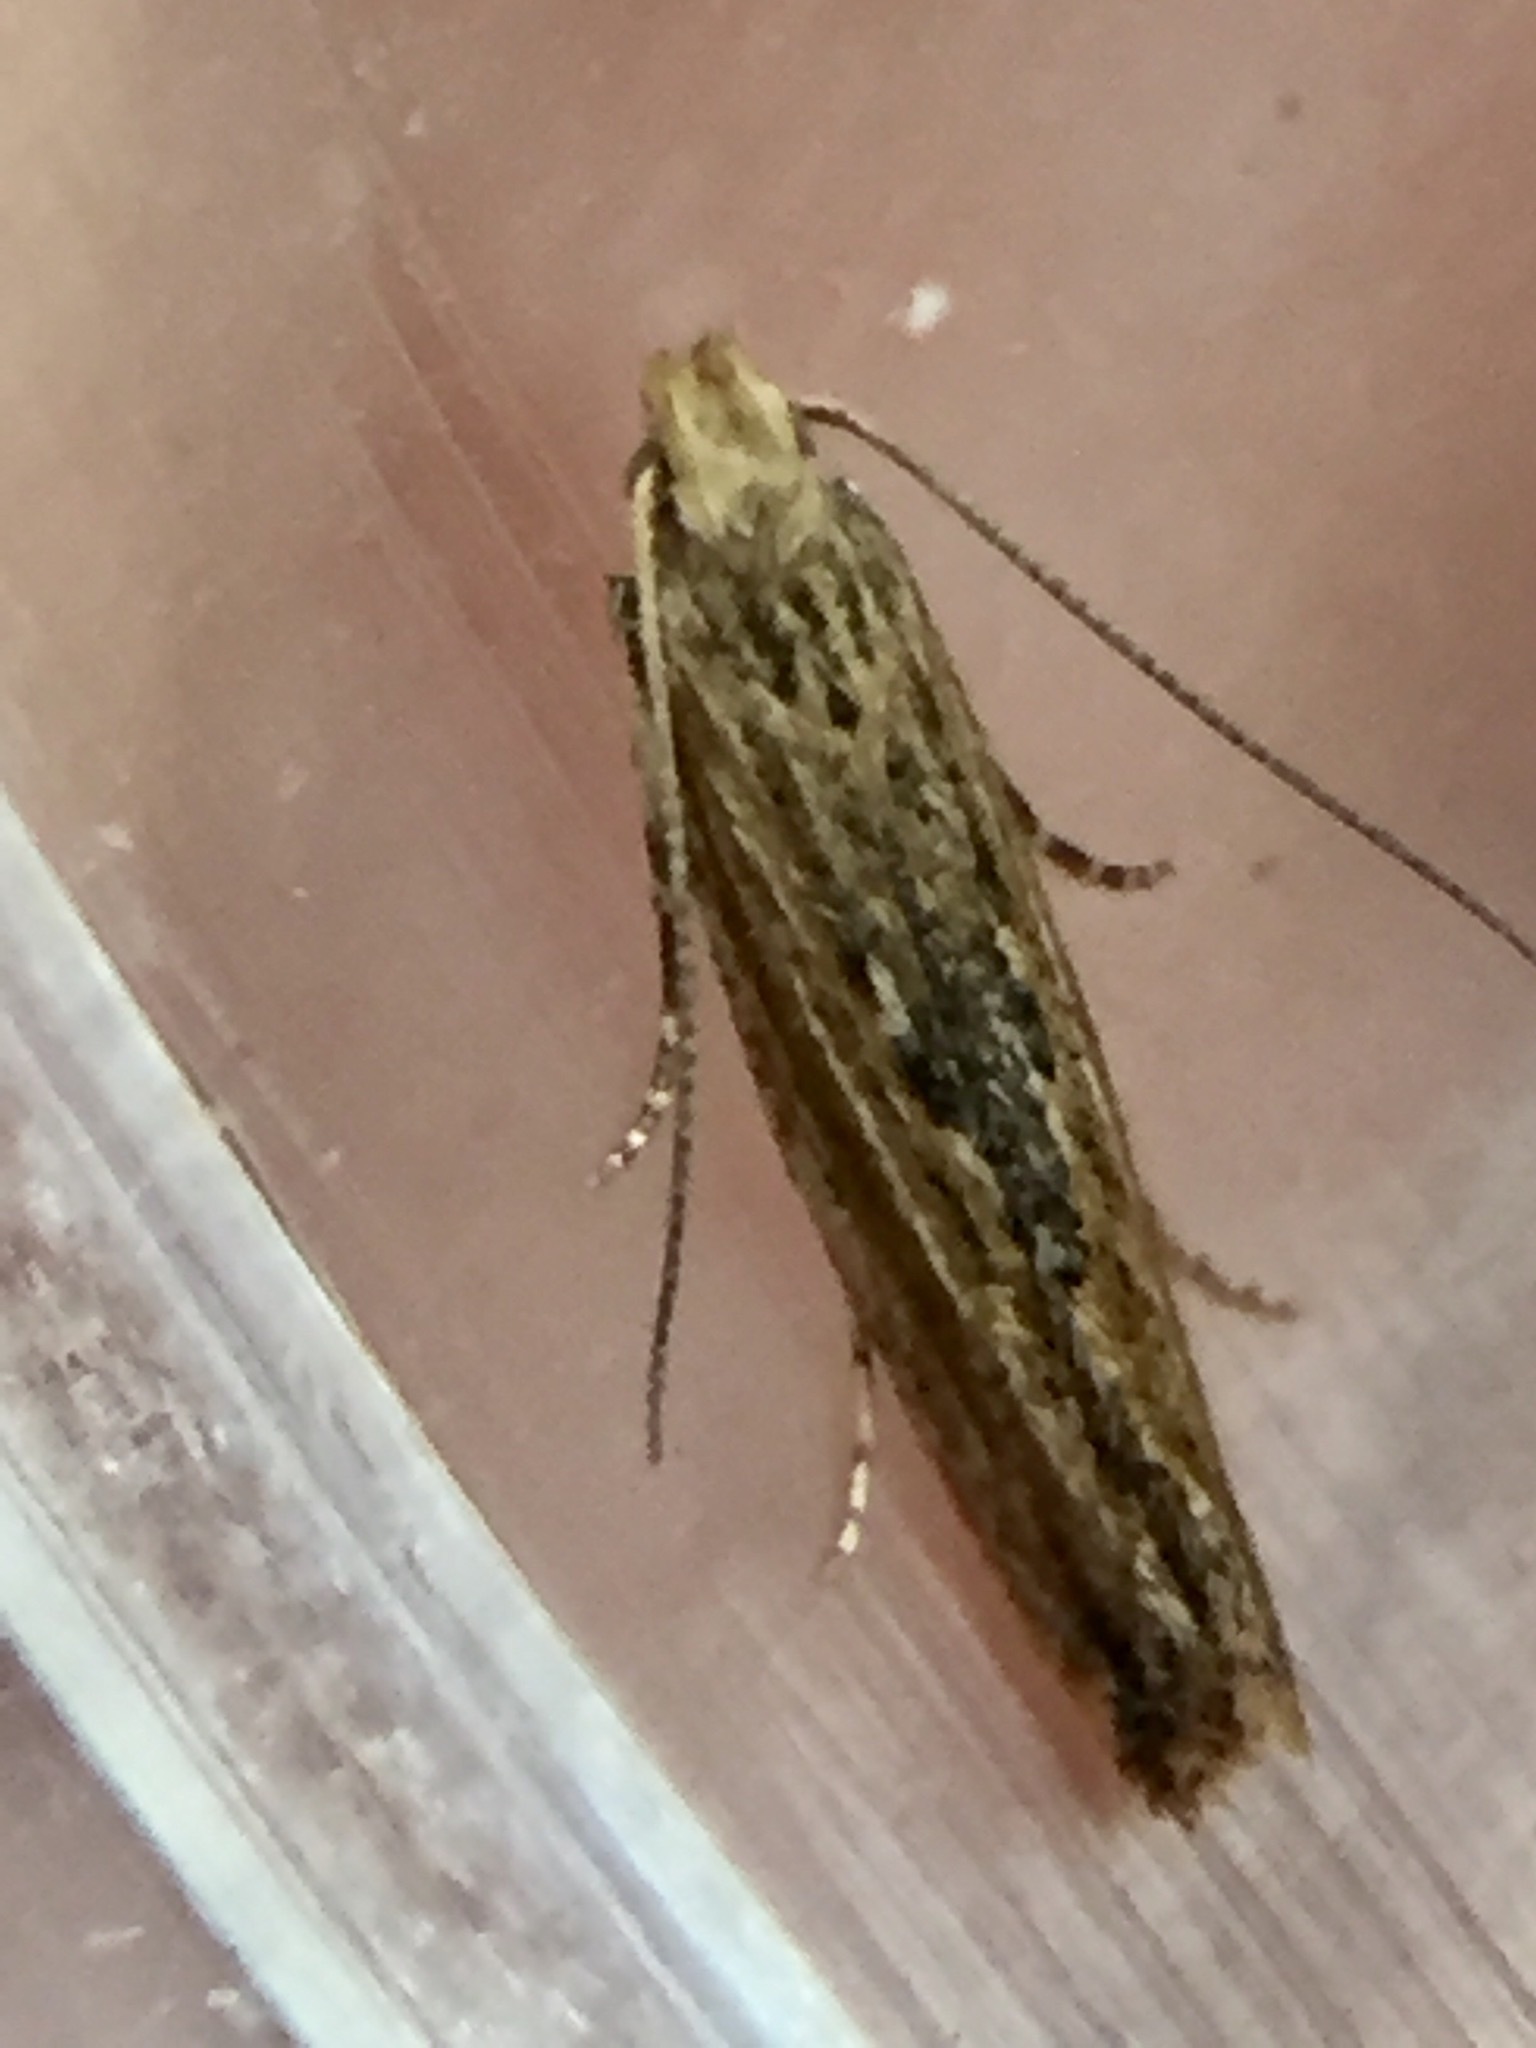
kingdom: Animalia
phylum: Arthropoda
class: Insecta
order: Lepidoptera
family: Gelechiidae
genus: Symmetrischema
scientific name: Symmetrischema striatella
